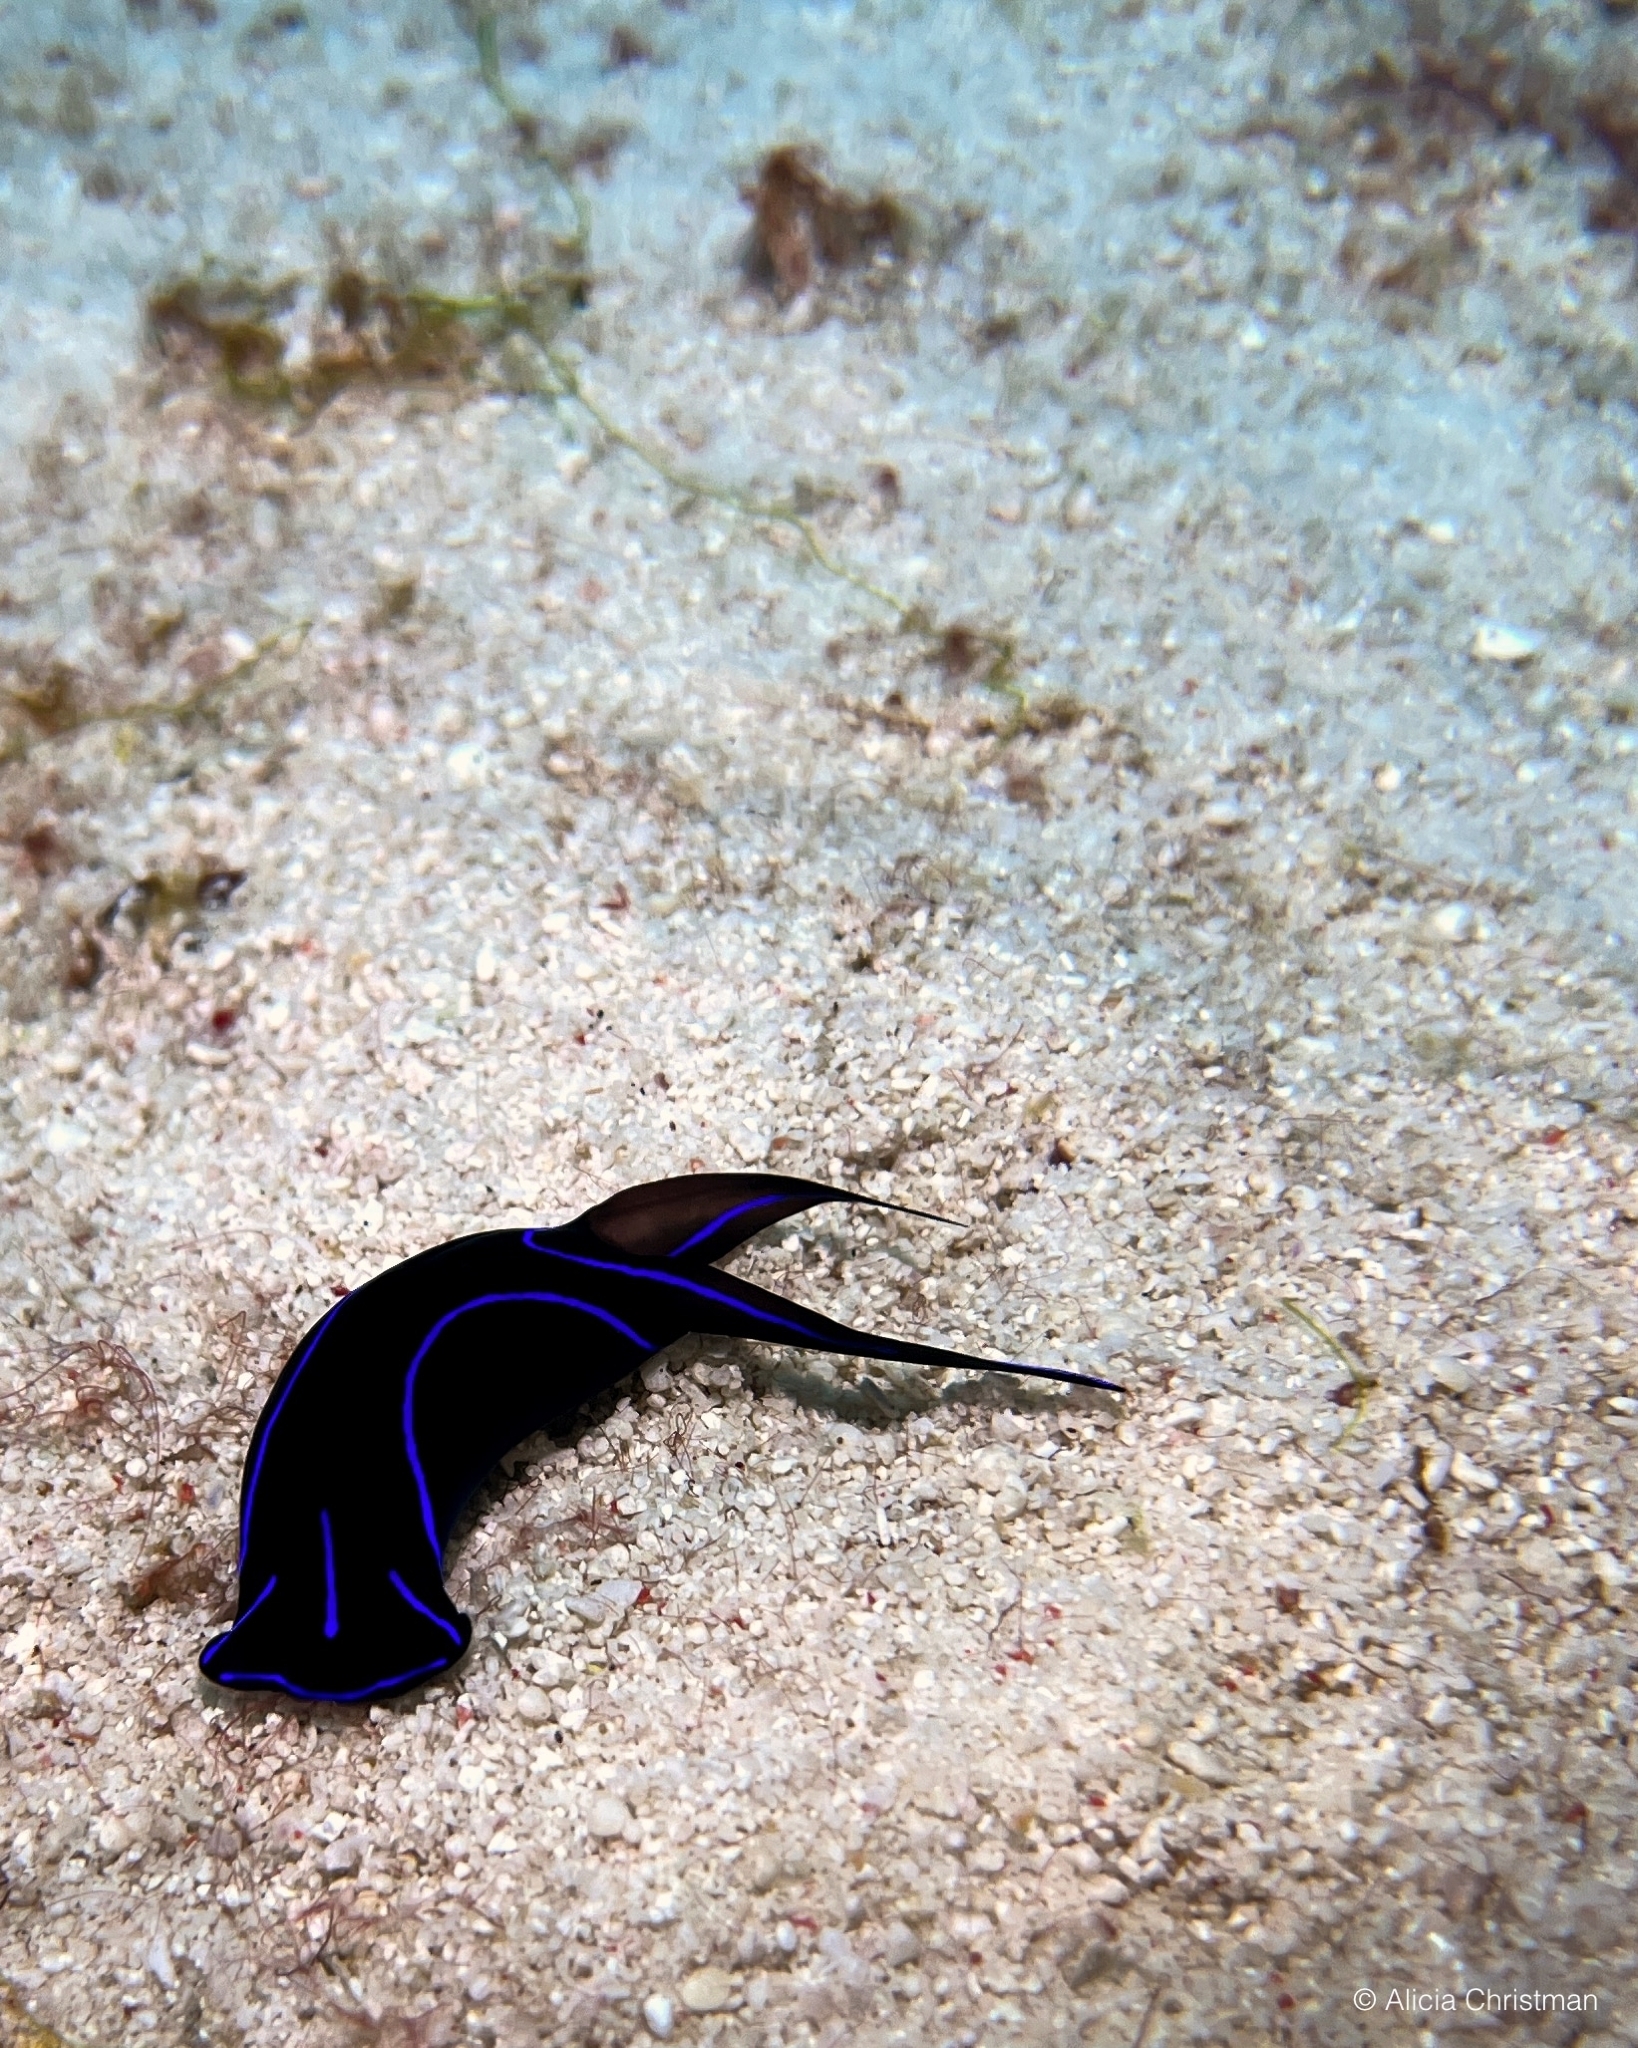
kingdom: Animalia
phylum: Mollusca
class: Gastropoda
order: Cephalaspidea
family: Aglajidae
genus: Chelidonura
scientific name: Chelidonura varians
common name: Blue velvet headshield slug
